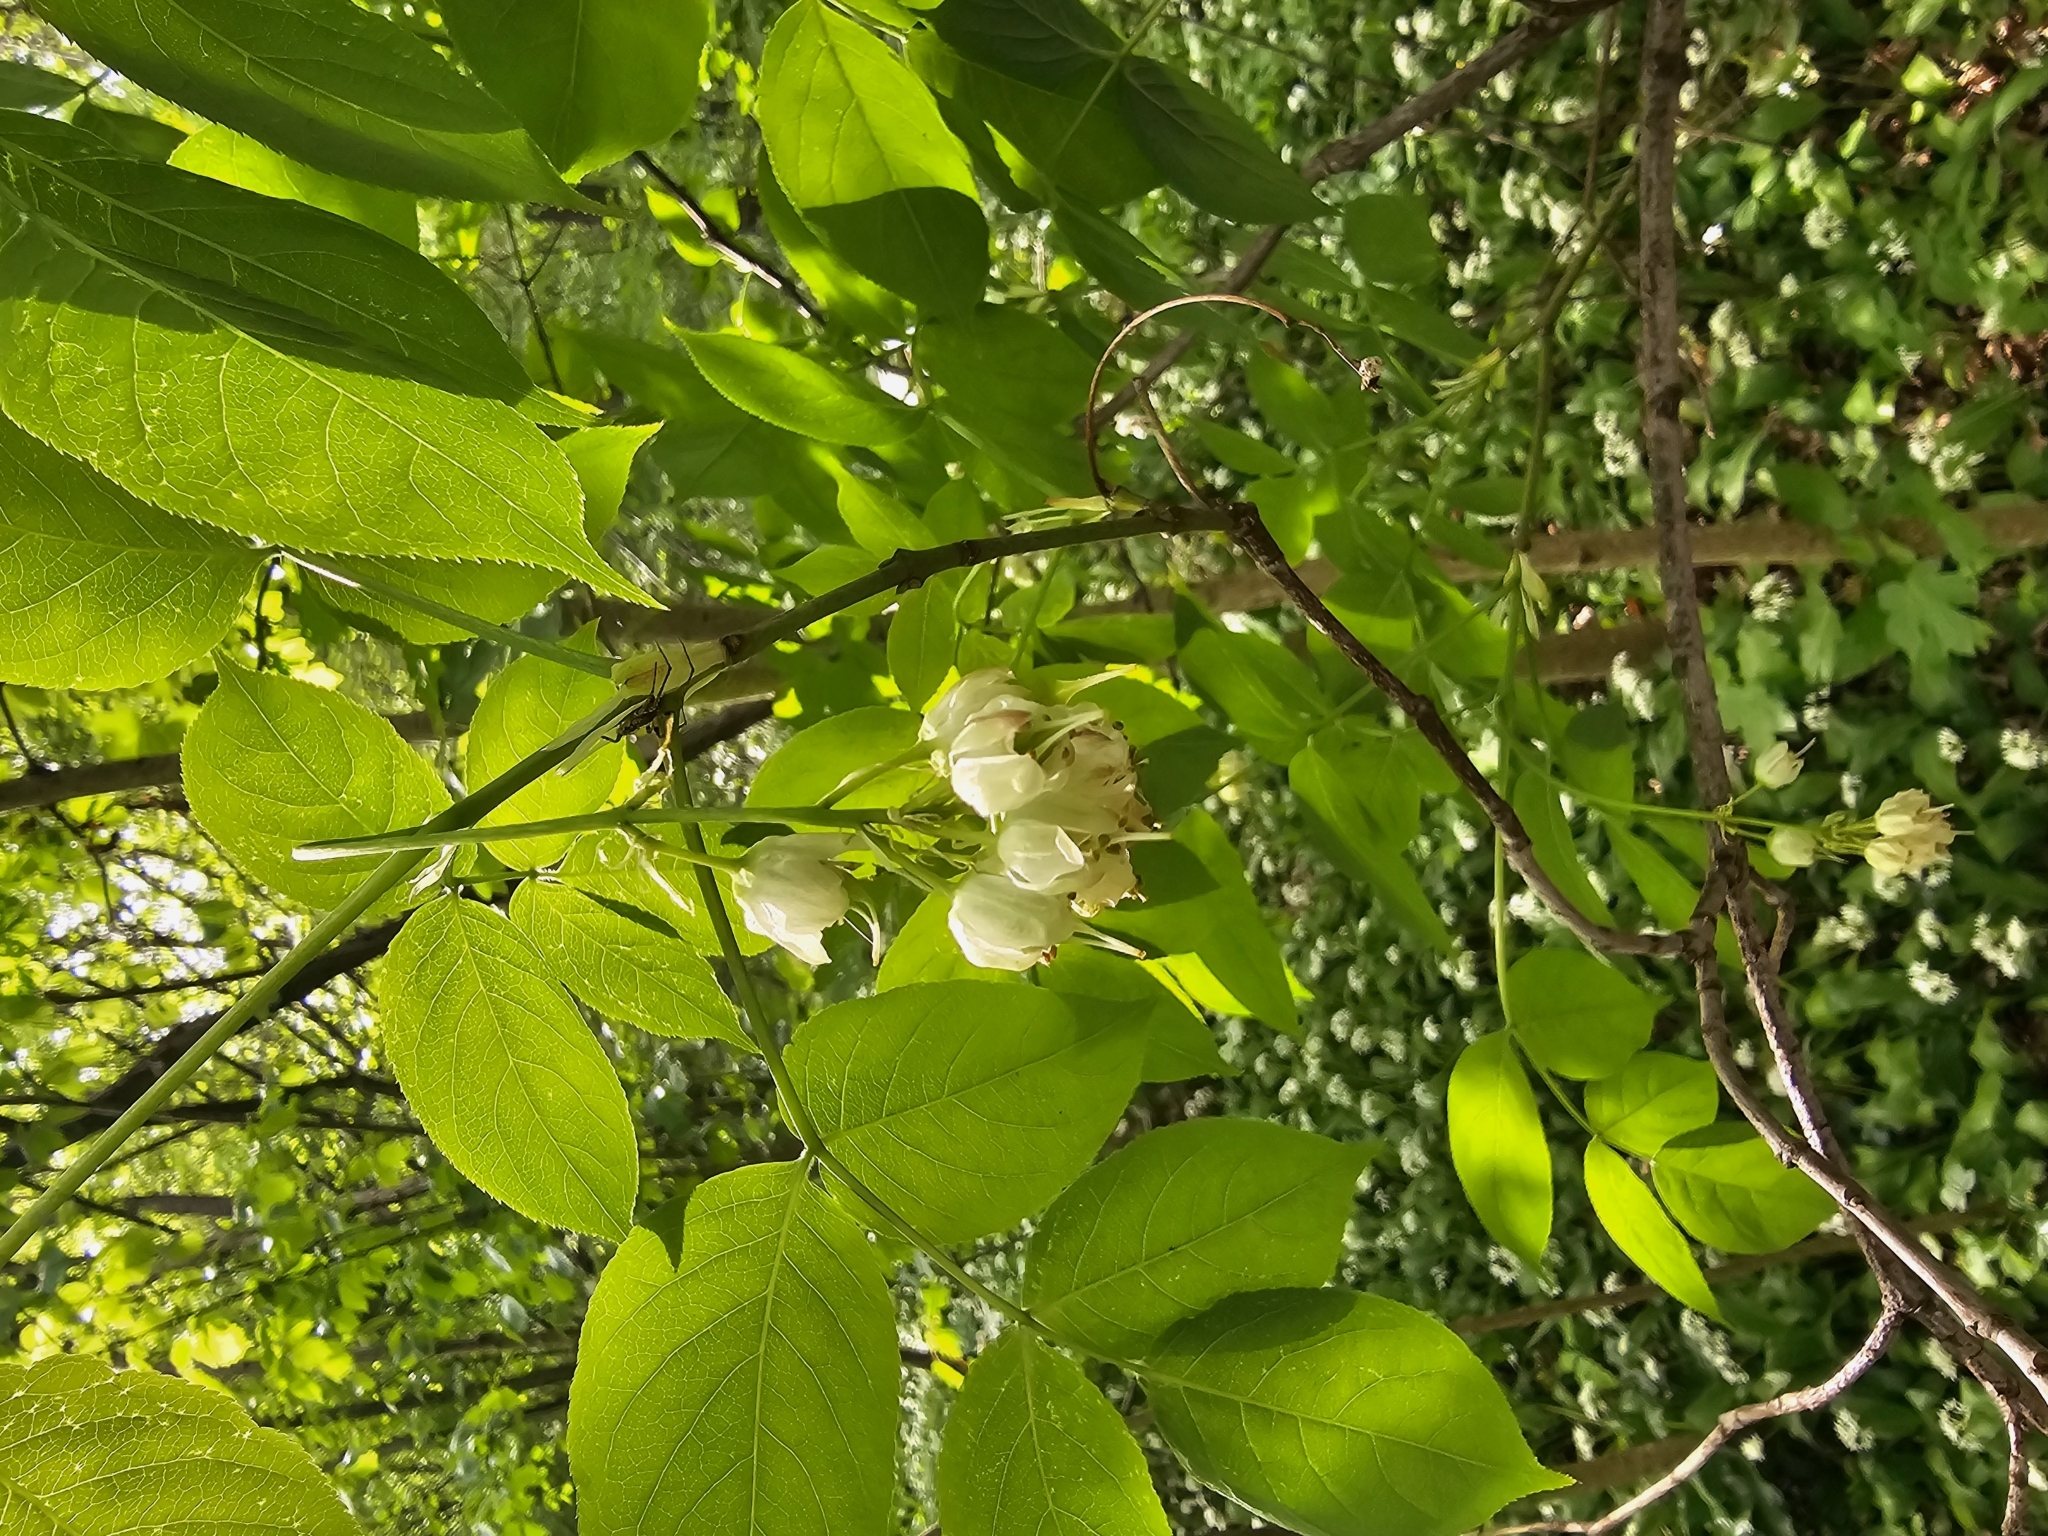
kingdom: Plantae
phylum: Tracheophyta
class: Magnoliopsida
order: Crossosomatales
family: Staphyleaceae
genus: Staphylea
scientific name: Staphylea pinnata
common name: Bladdernut
